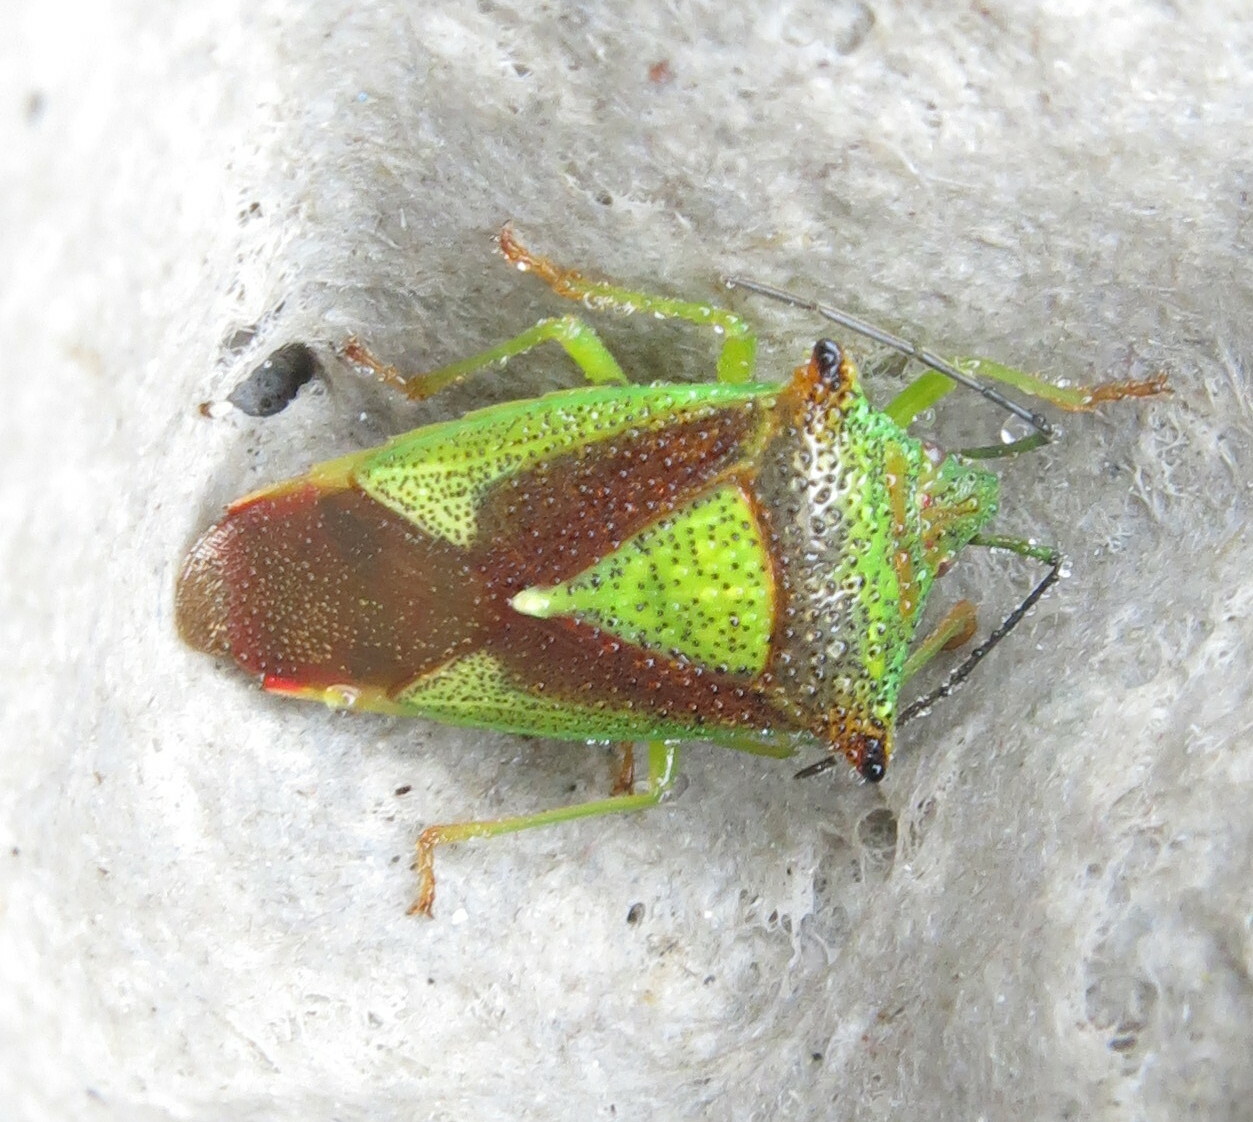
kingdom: Animalia
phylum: Arthropoda
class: Insecta
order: Hemiptera
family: Acanthosomatidae
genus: Acanthosoma
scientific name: Acanthosoma haemorrhoidale
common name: Hawthorn shieldbug
